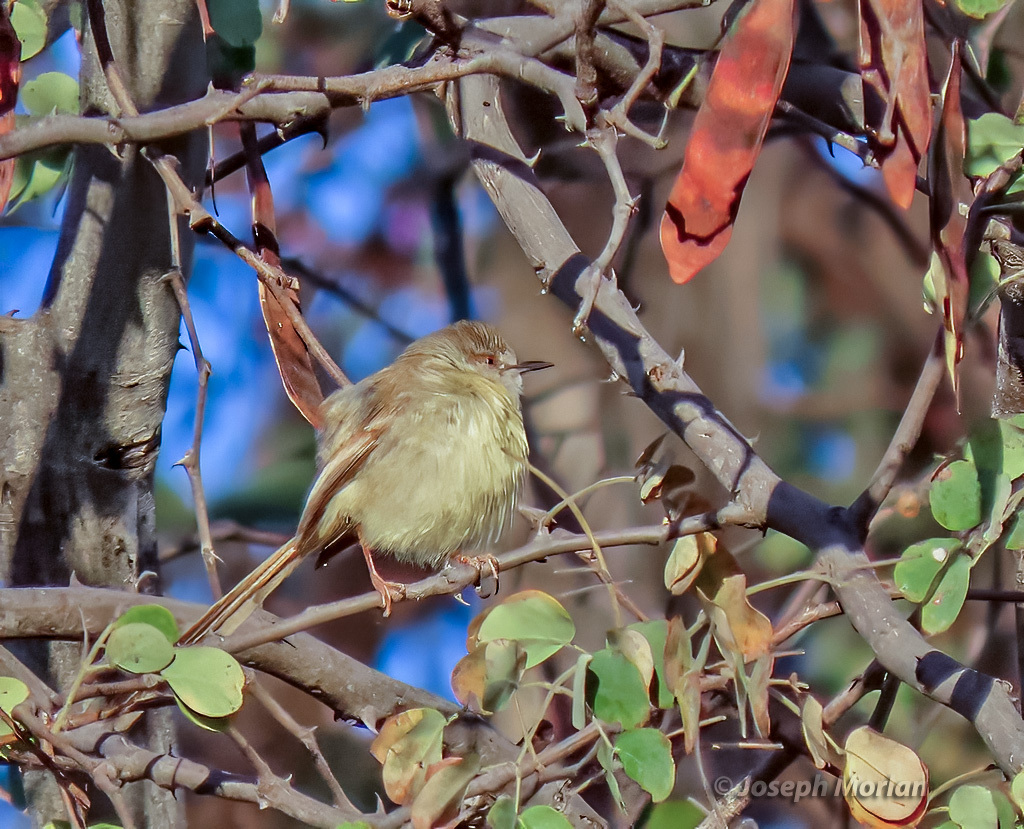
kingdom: Animalia
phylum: Chordata
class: Aves
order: Passeriformes
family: Cisticolidae
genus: Prinia
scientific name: Prinia flavicans
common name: Black-chested prinia
